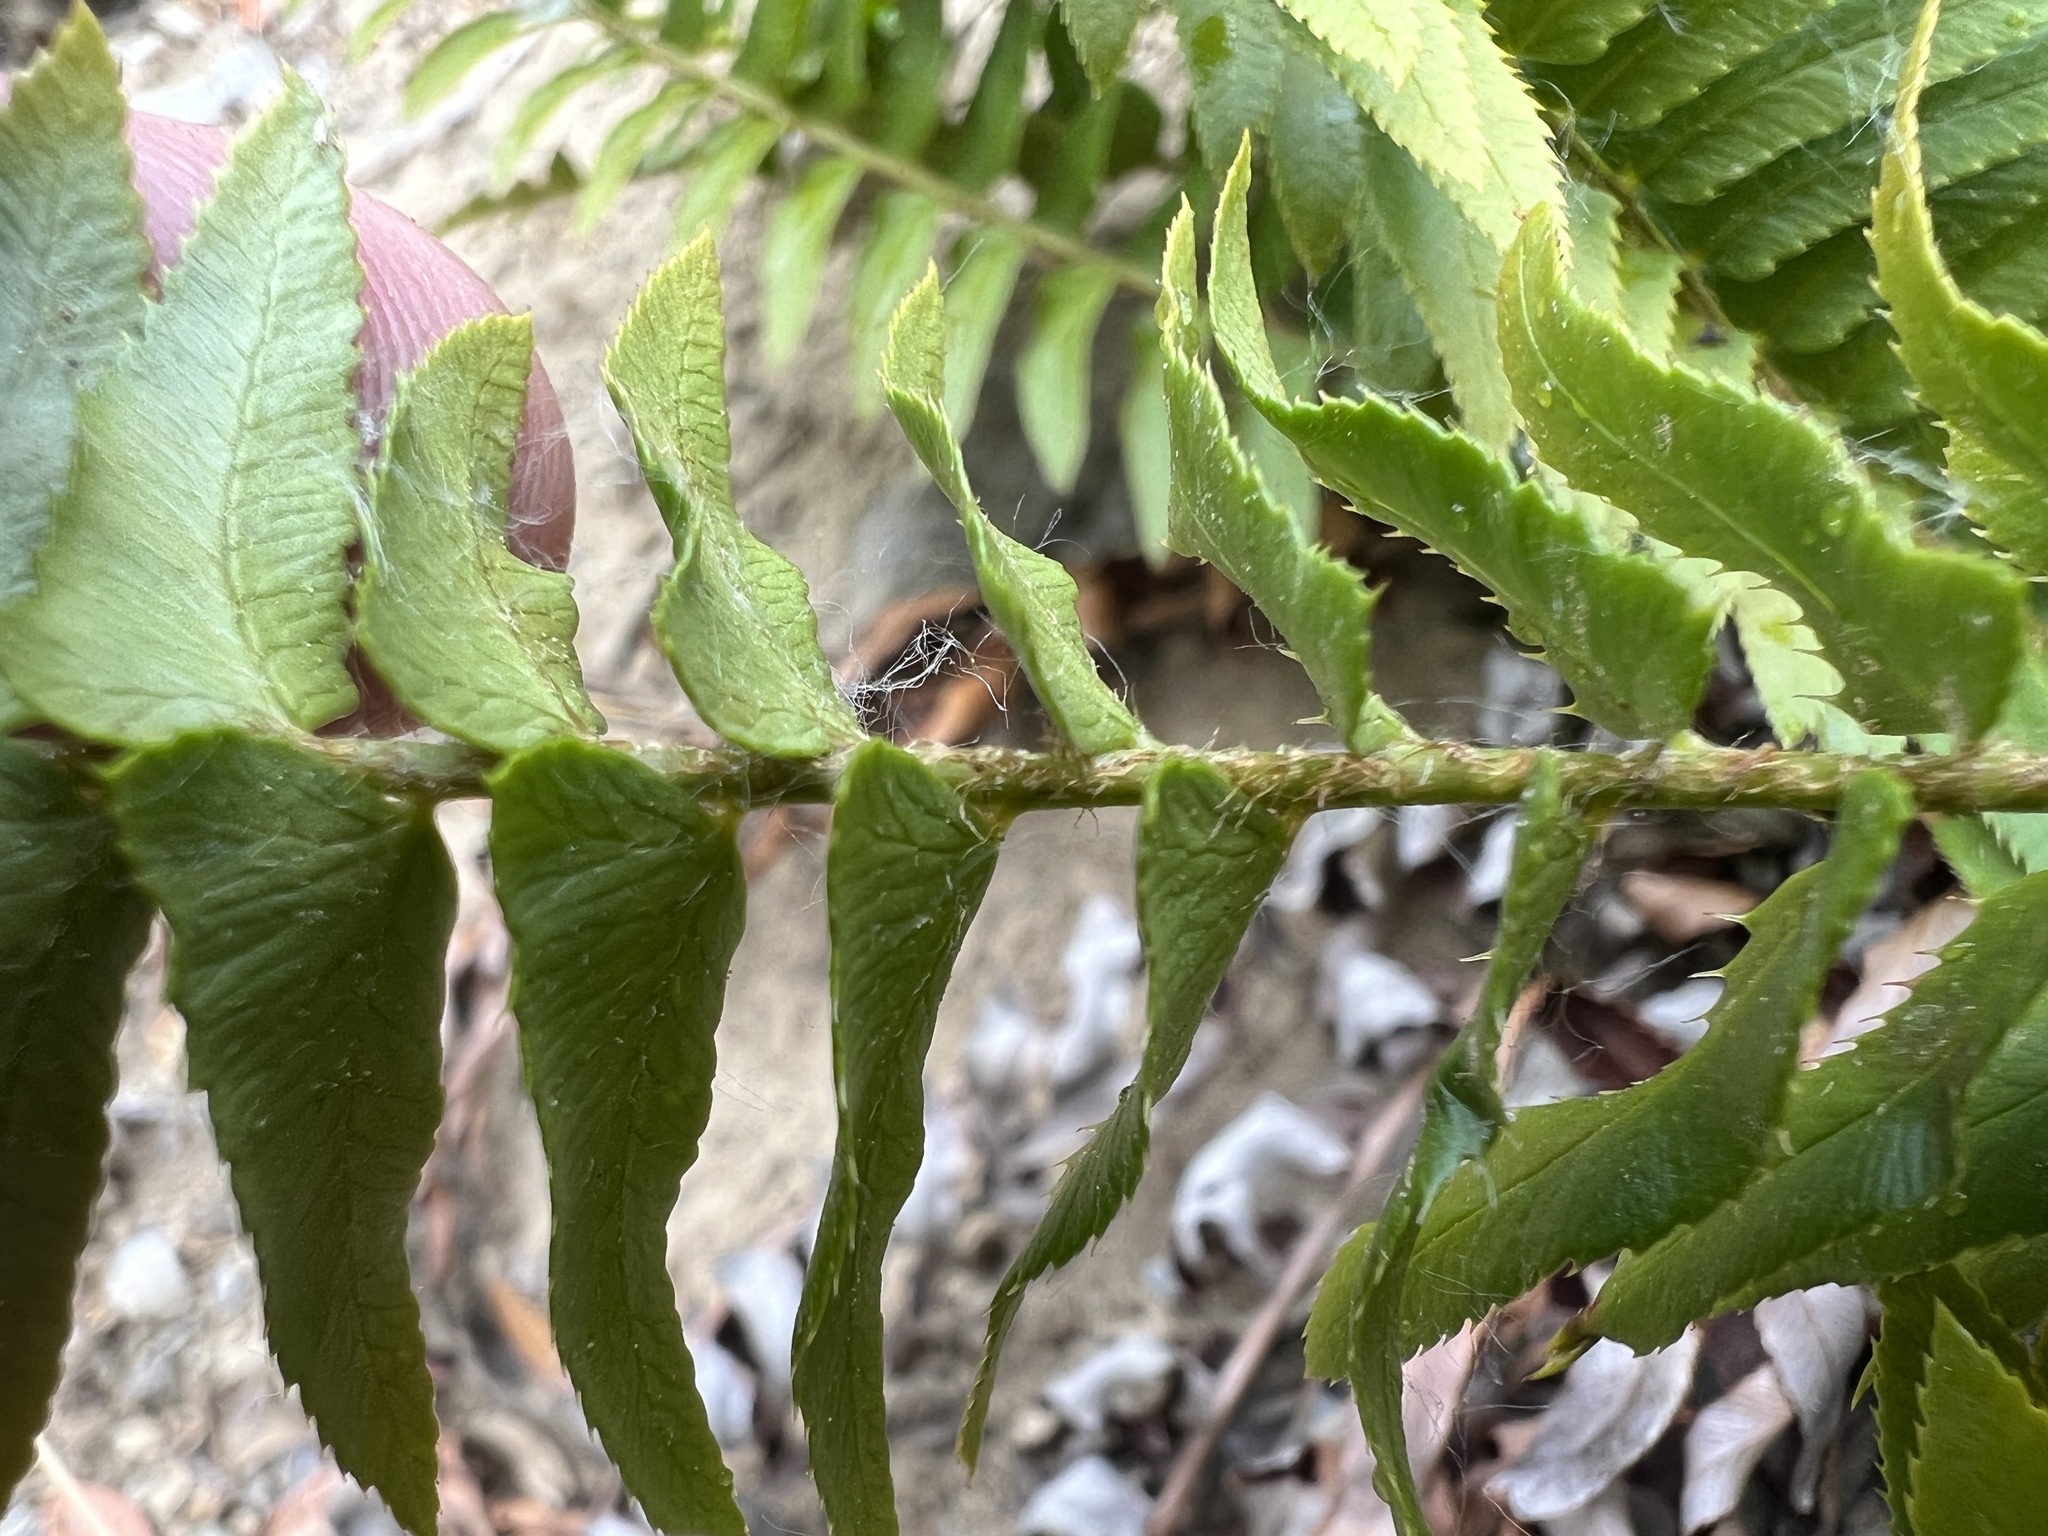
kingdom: Plantae
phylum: Tracheophyta
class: Polypodiopsida
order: Polypodiales
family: Dryopteridaceae
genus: Polystichum
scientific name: Polystichum imbricans
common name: Dwarf western sword fern
